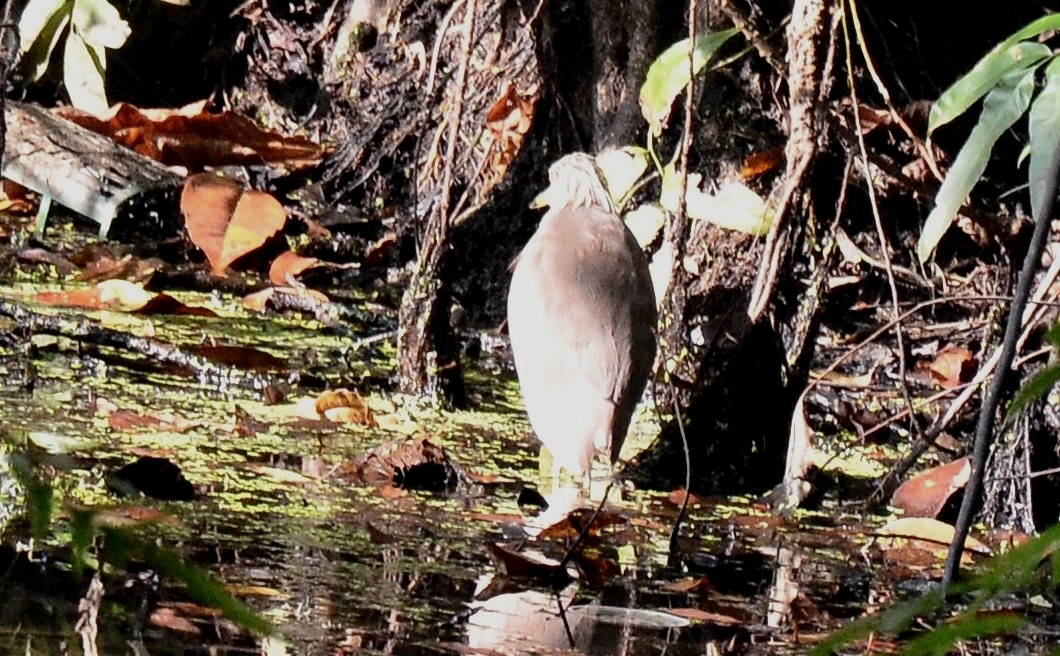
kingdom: Animalia
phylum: Chordata
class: Aves
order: Pelecaniformes
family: Ardeidae
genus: Ardeola
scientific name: Ardeola grayii
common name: Indian pond heron
